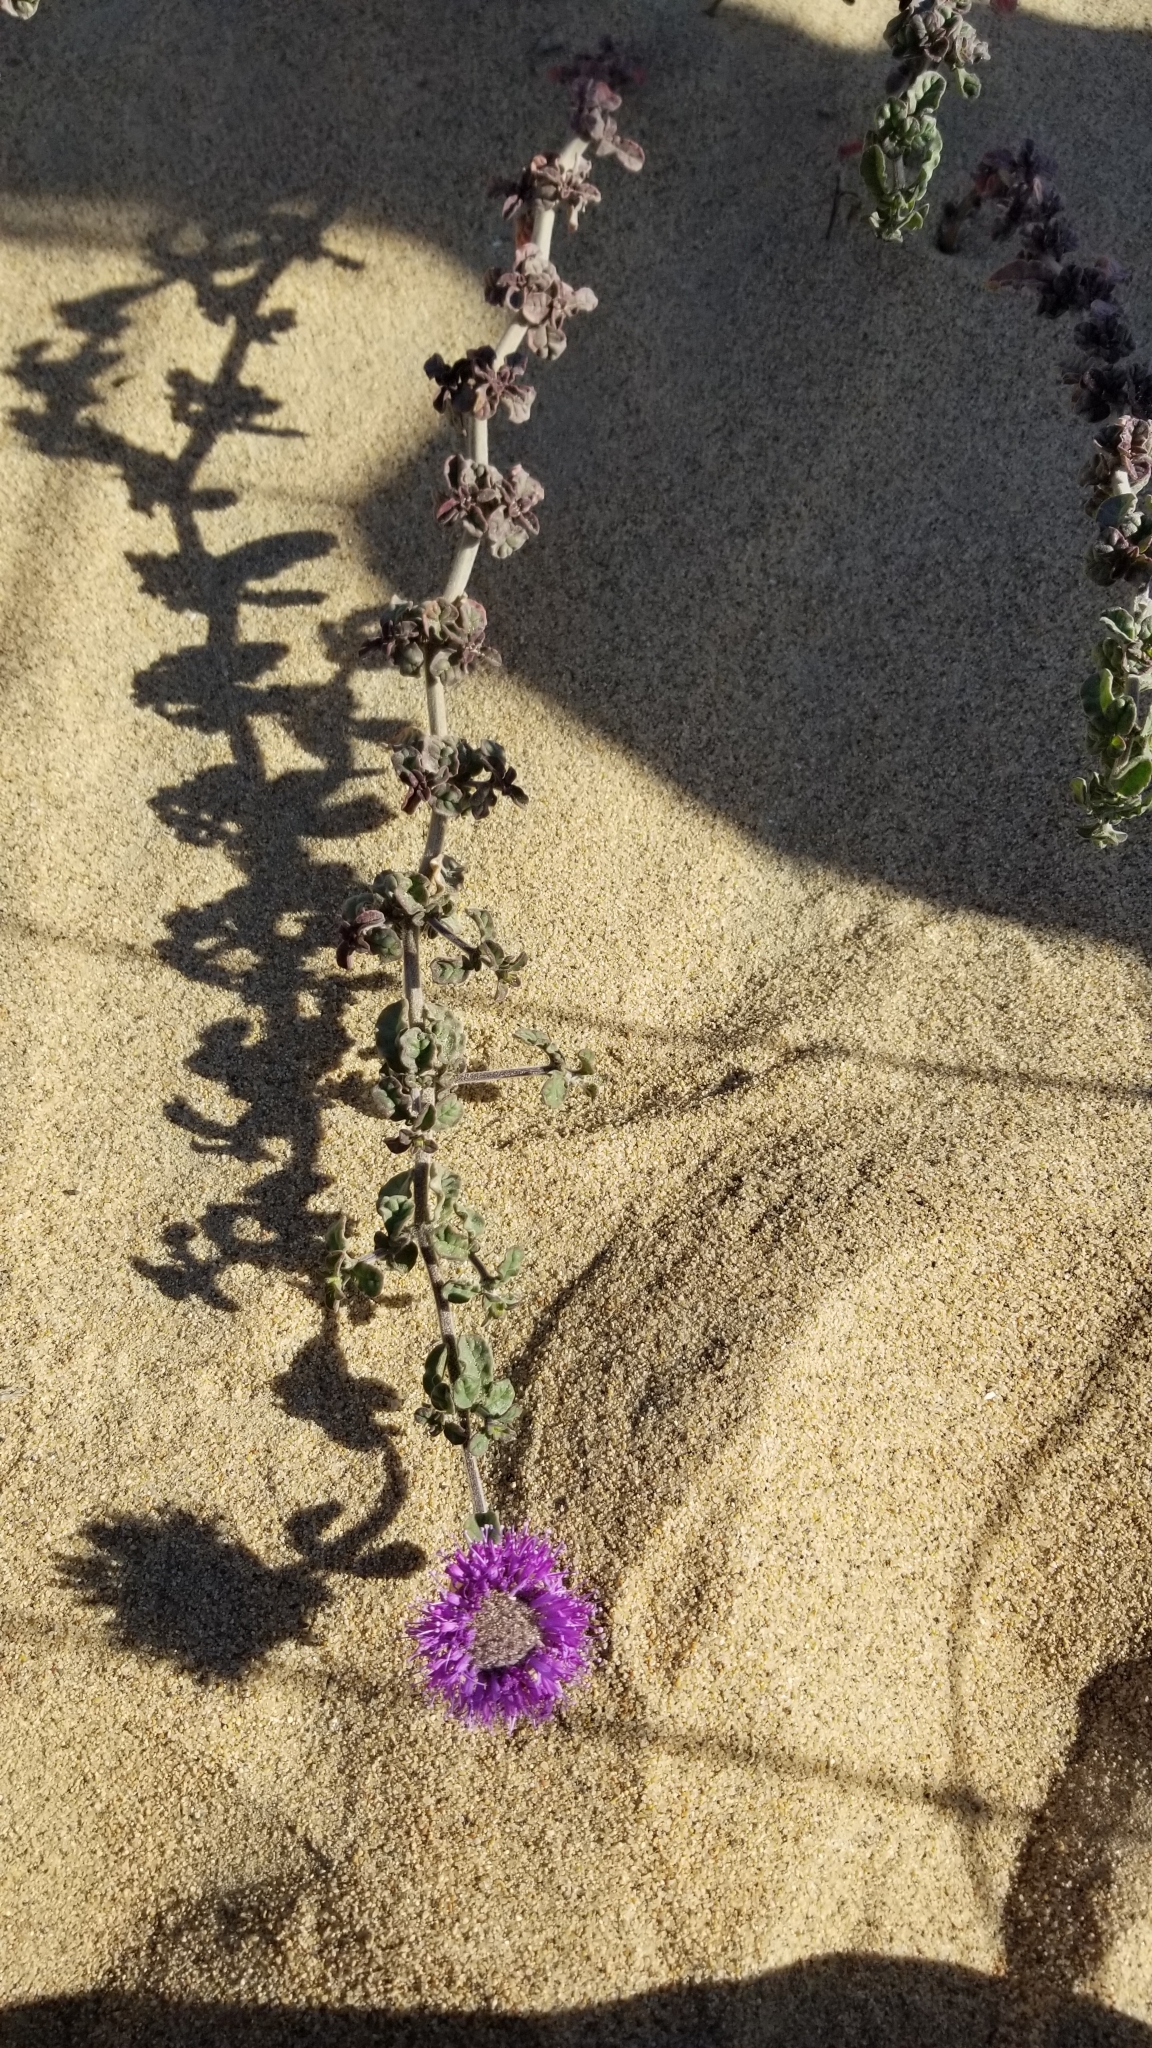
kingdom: Plantae
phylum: Tracheophyta
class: Magnoliopsida
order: Lamiales
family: Lamiaceae
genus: Monardella
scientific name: Monardella undulata
